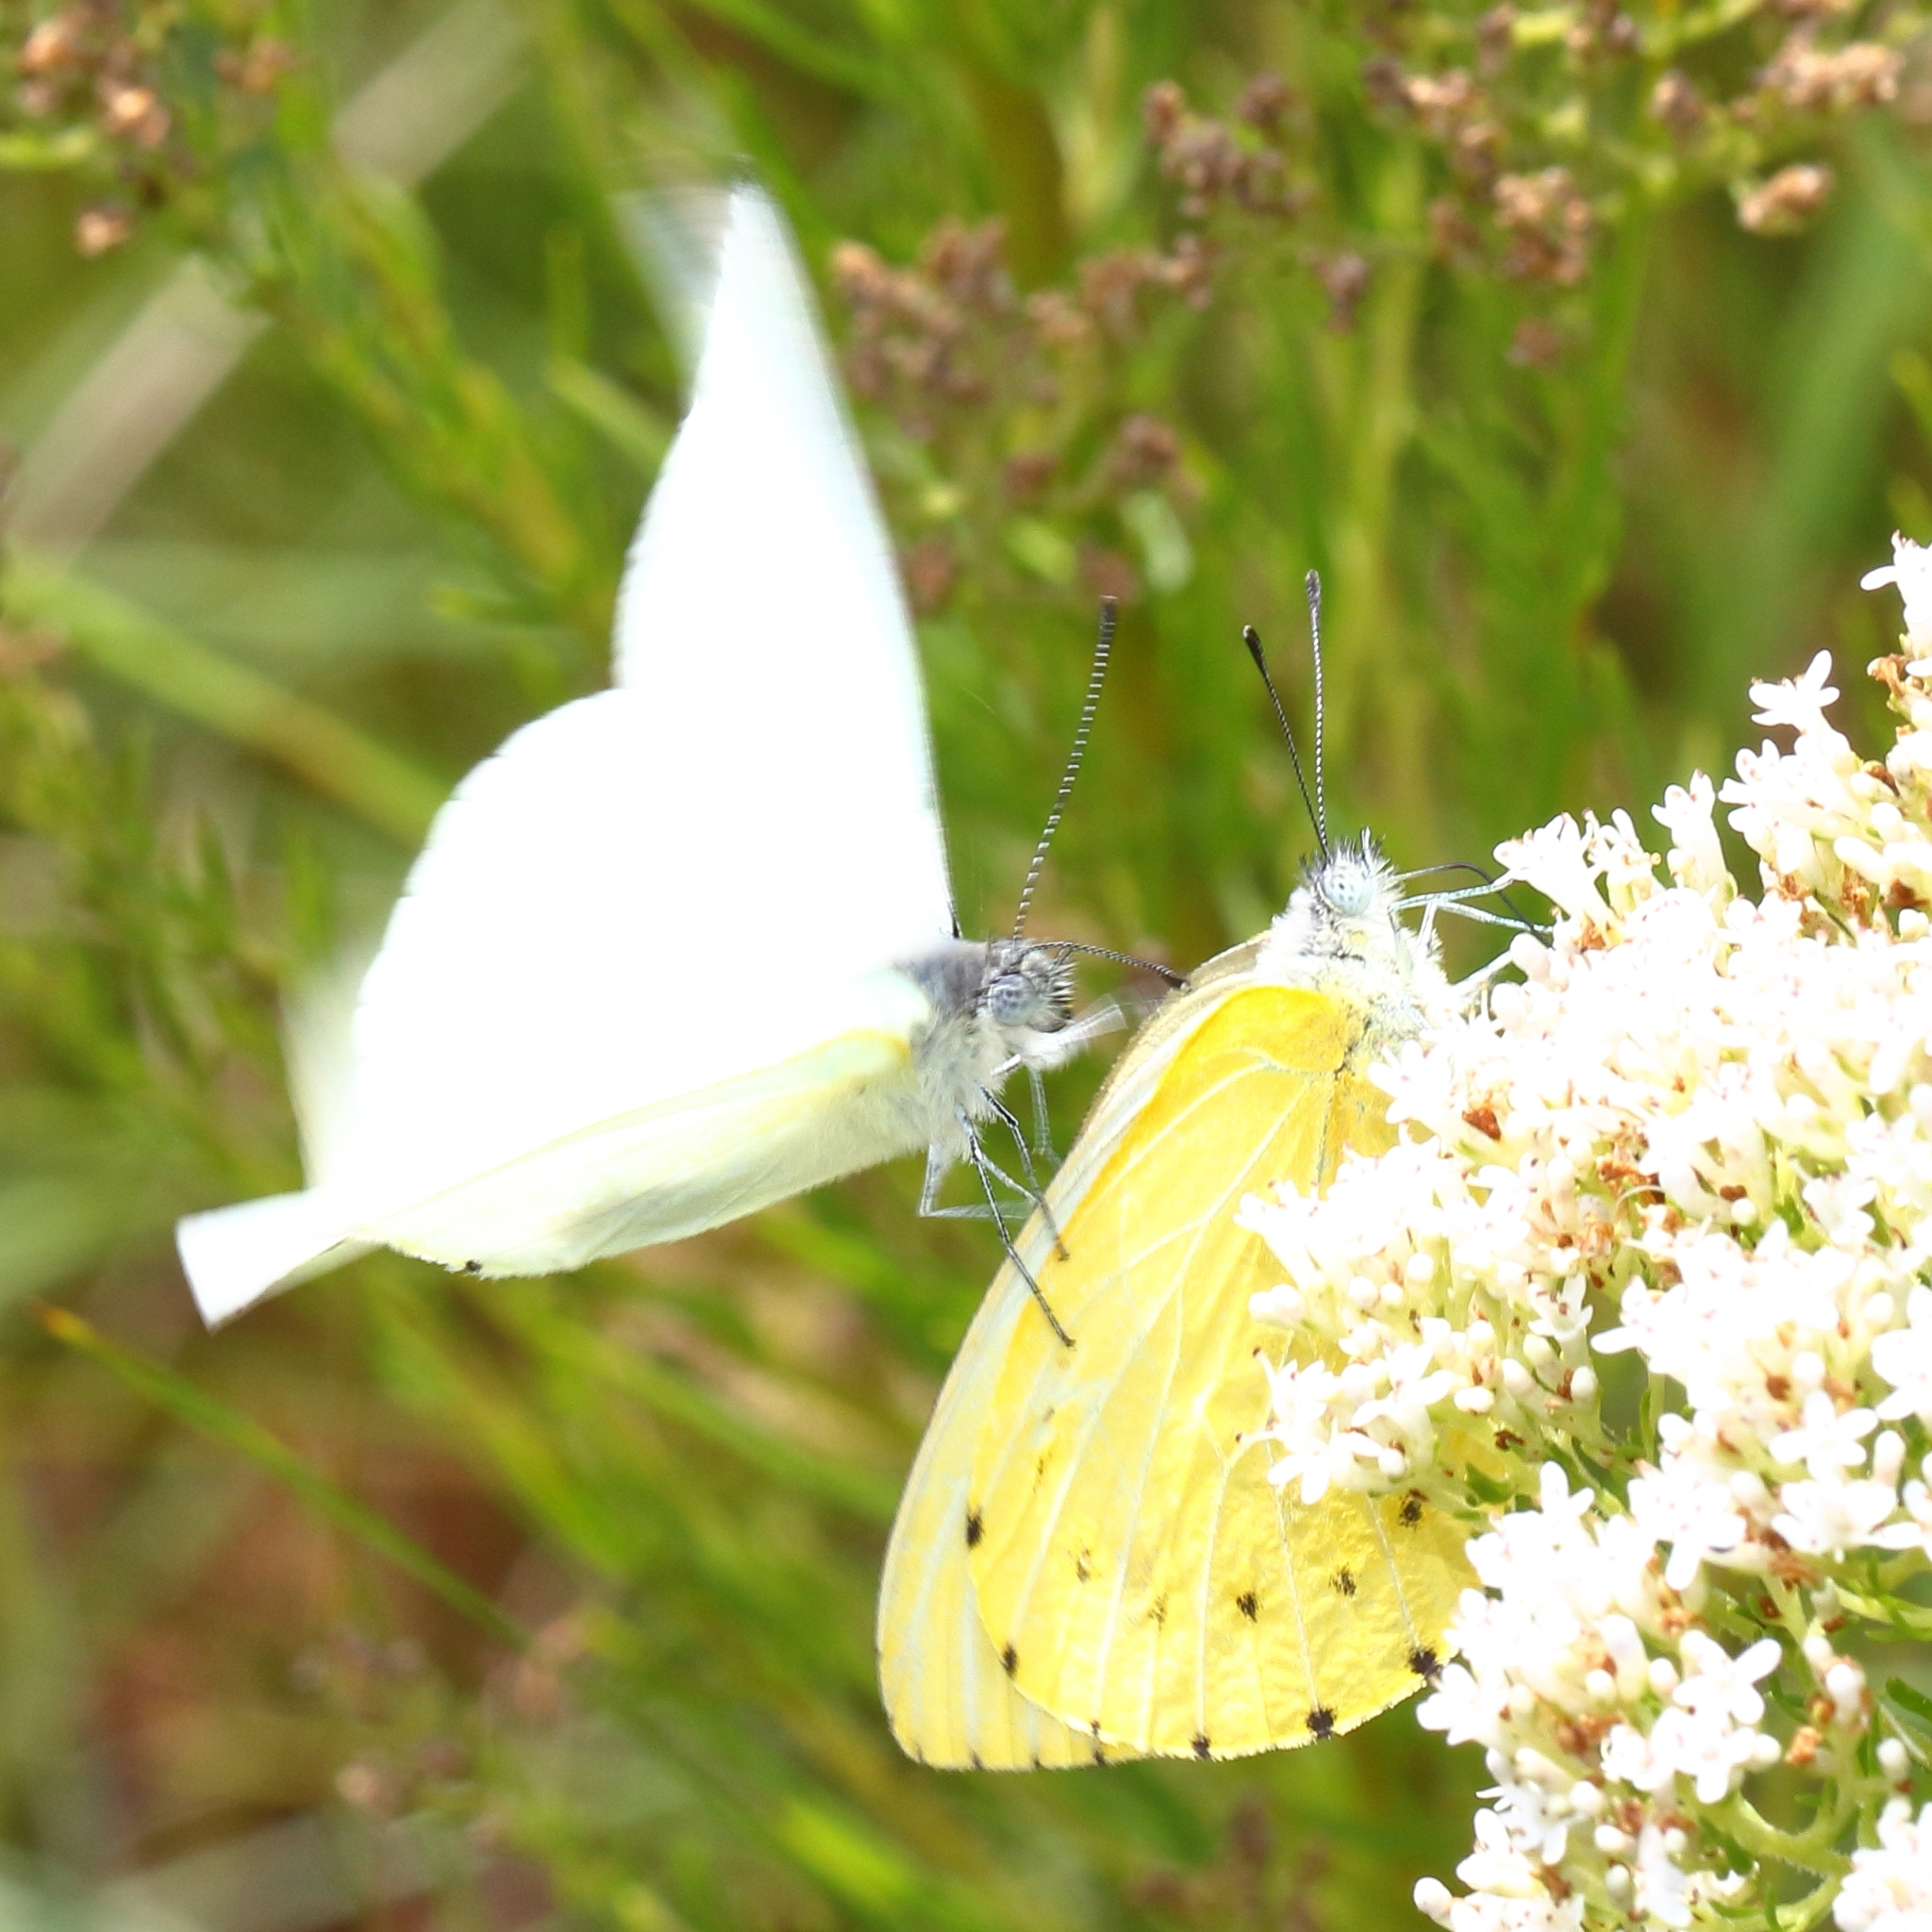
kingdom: Animalia
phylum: Arthropoda
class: Insecta
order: Lepidoptera
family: Pieridae
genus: Dixeia
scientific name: Dixeia pigea
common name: Ant-heap small white
